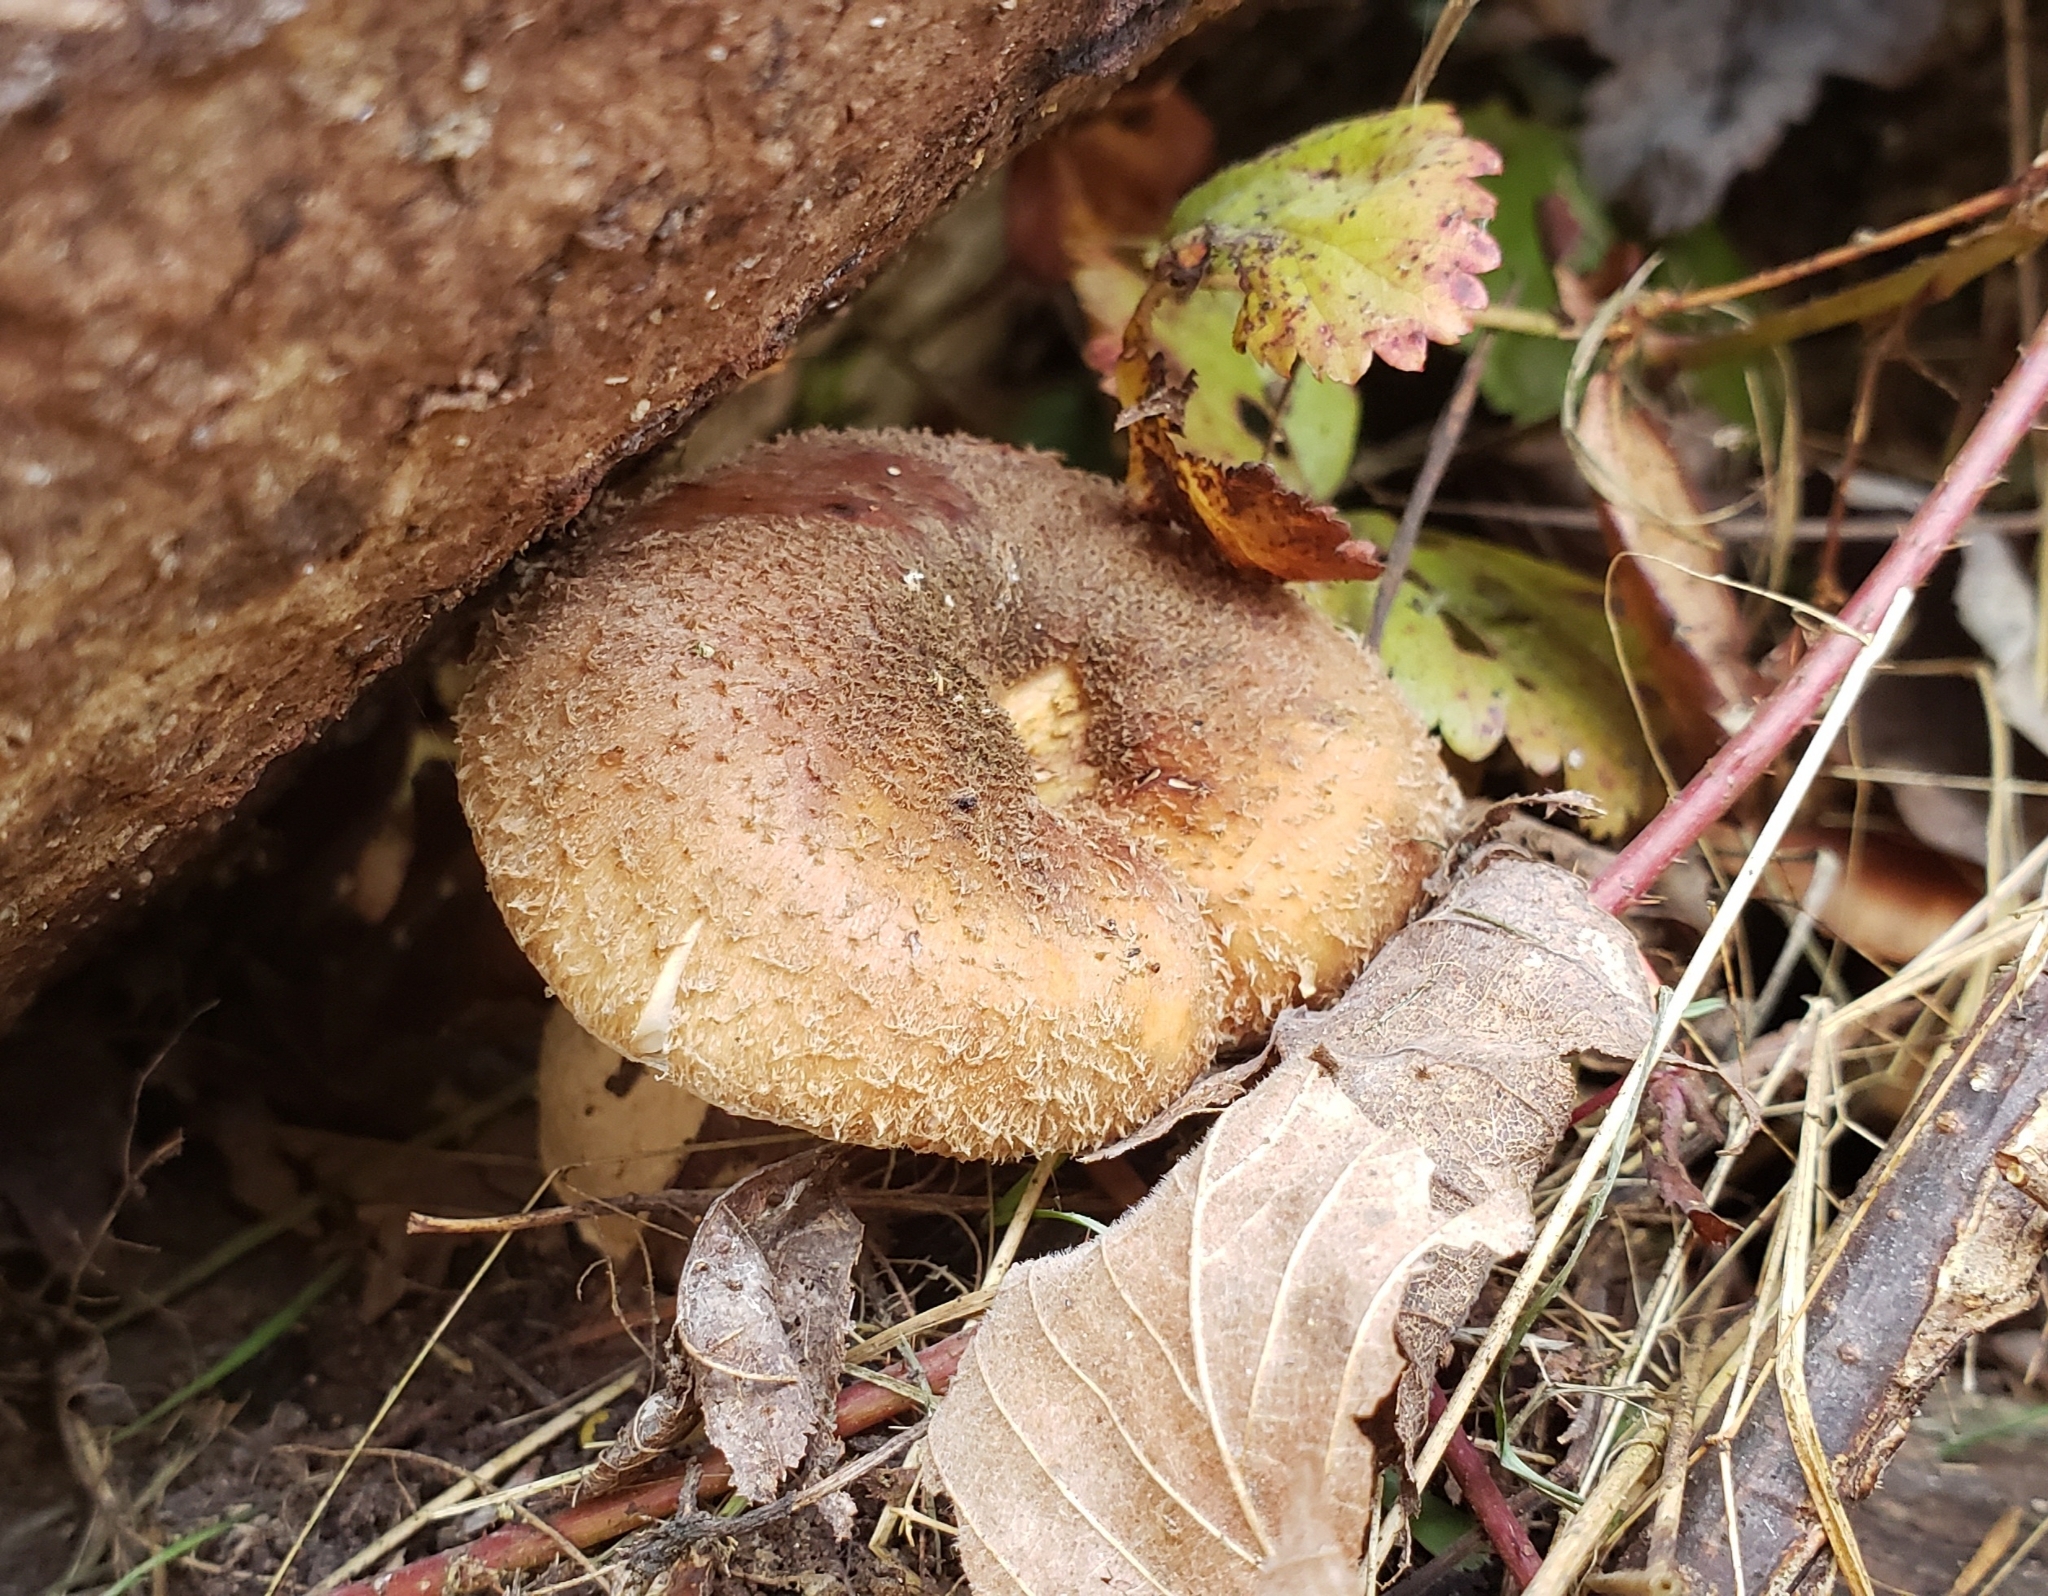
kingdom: Fungi
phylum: Basidiomycota
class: Agaricomycetes
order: Agaricales
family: Physalacriaceae
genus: Armillaria
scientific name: Armillaria gallica
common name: Bulbous honey fungus
